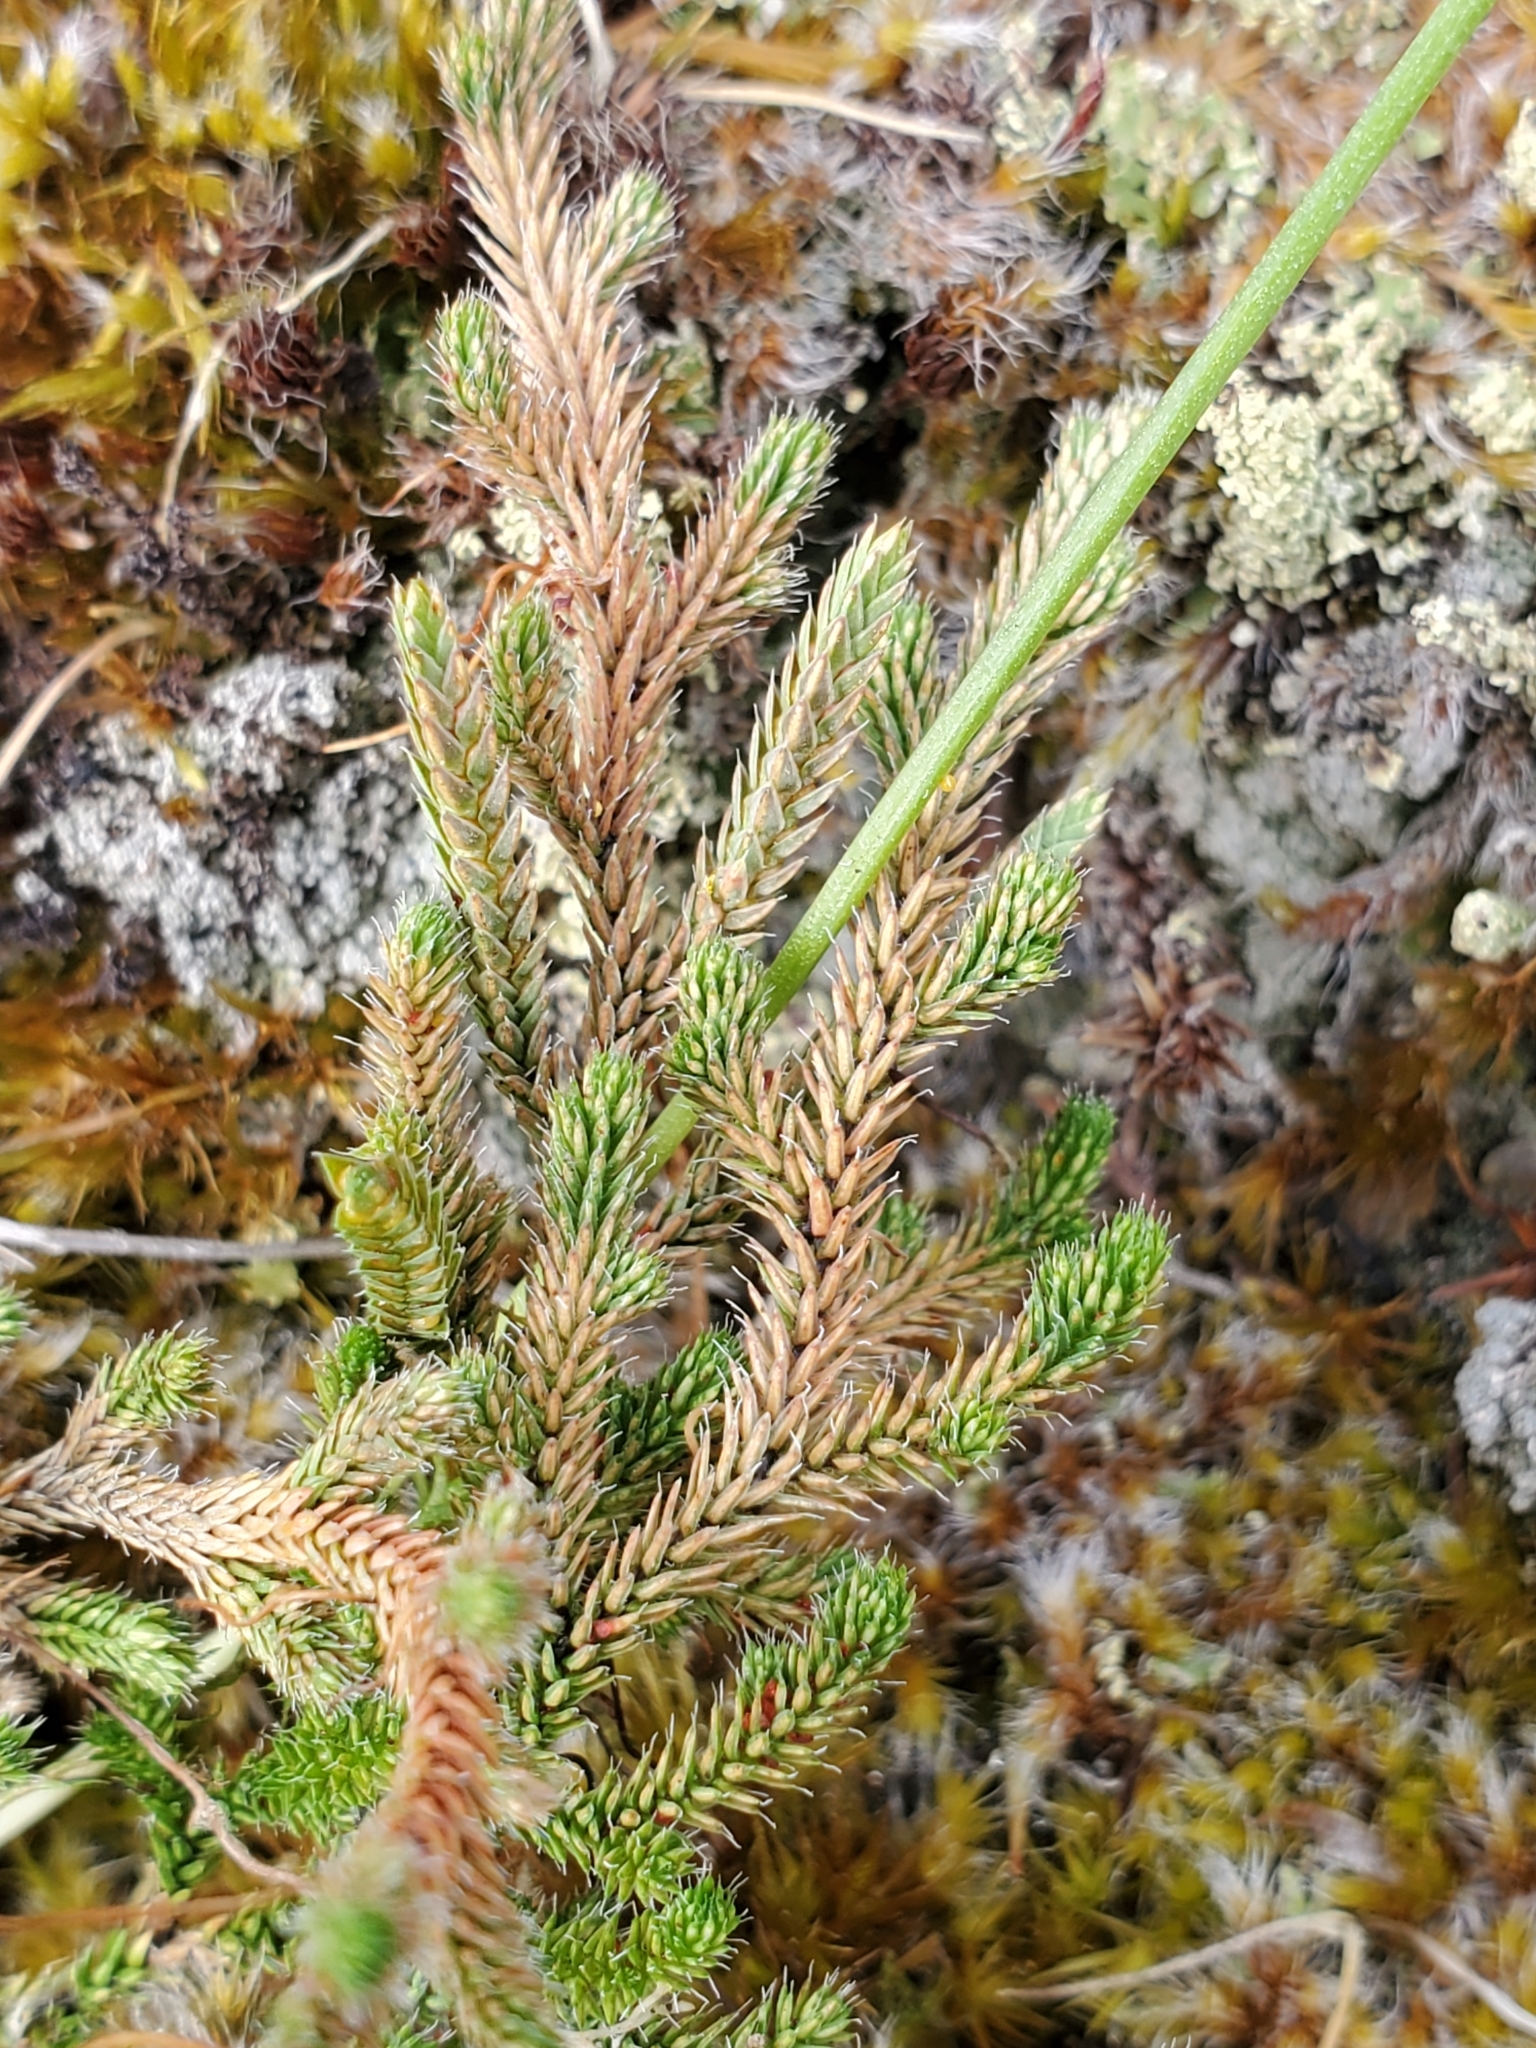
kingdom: Plantae
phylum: Tracheophyta
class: Lycopodiopsida
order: Selaginellales
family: Selaginellaceae
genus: Selaginella
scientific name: Selaginella wallacei
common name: Wallace's selaginella
